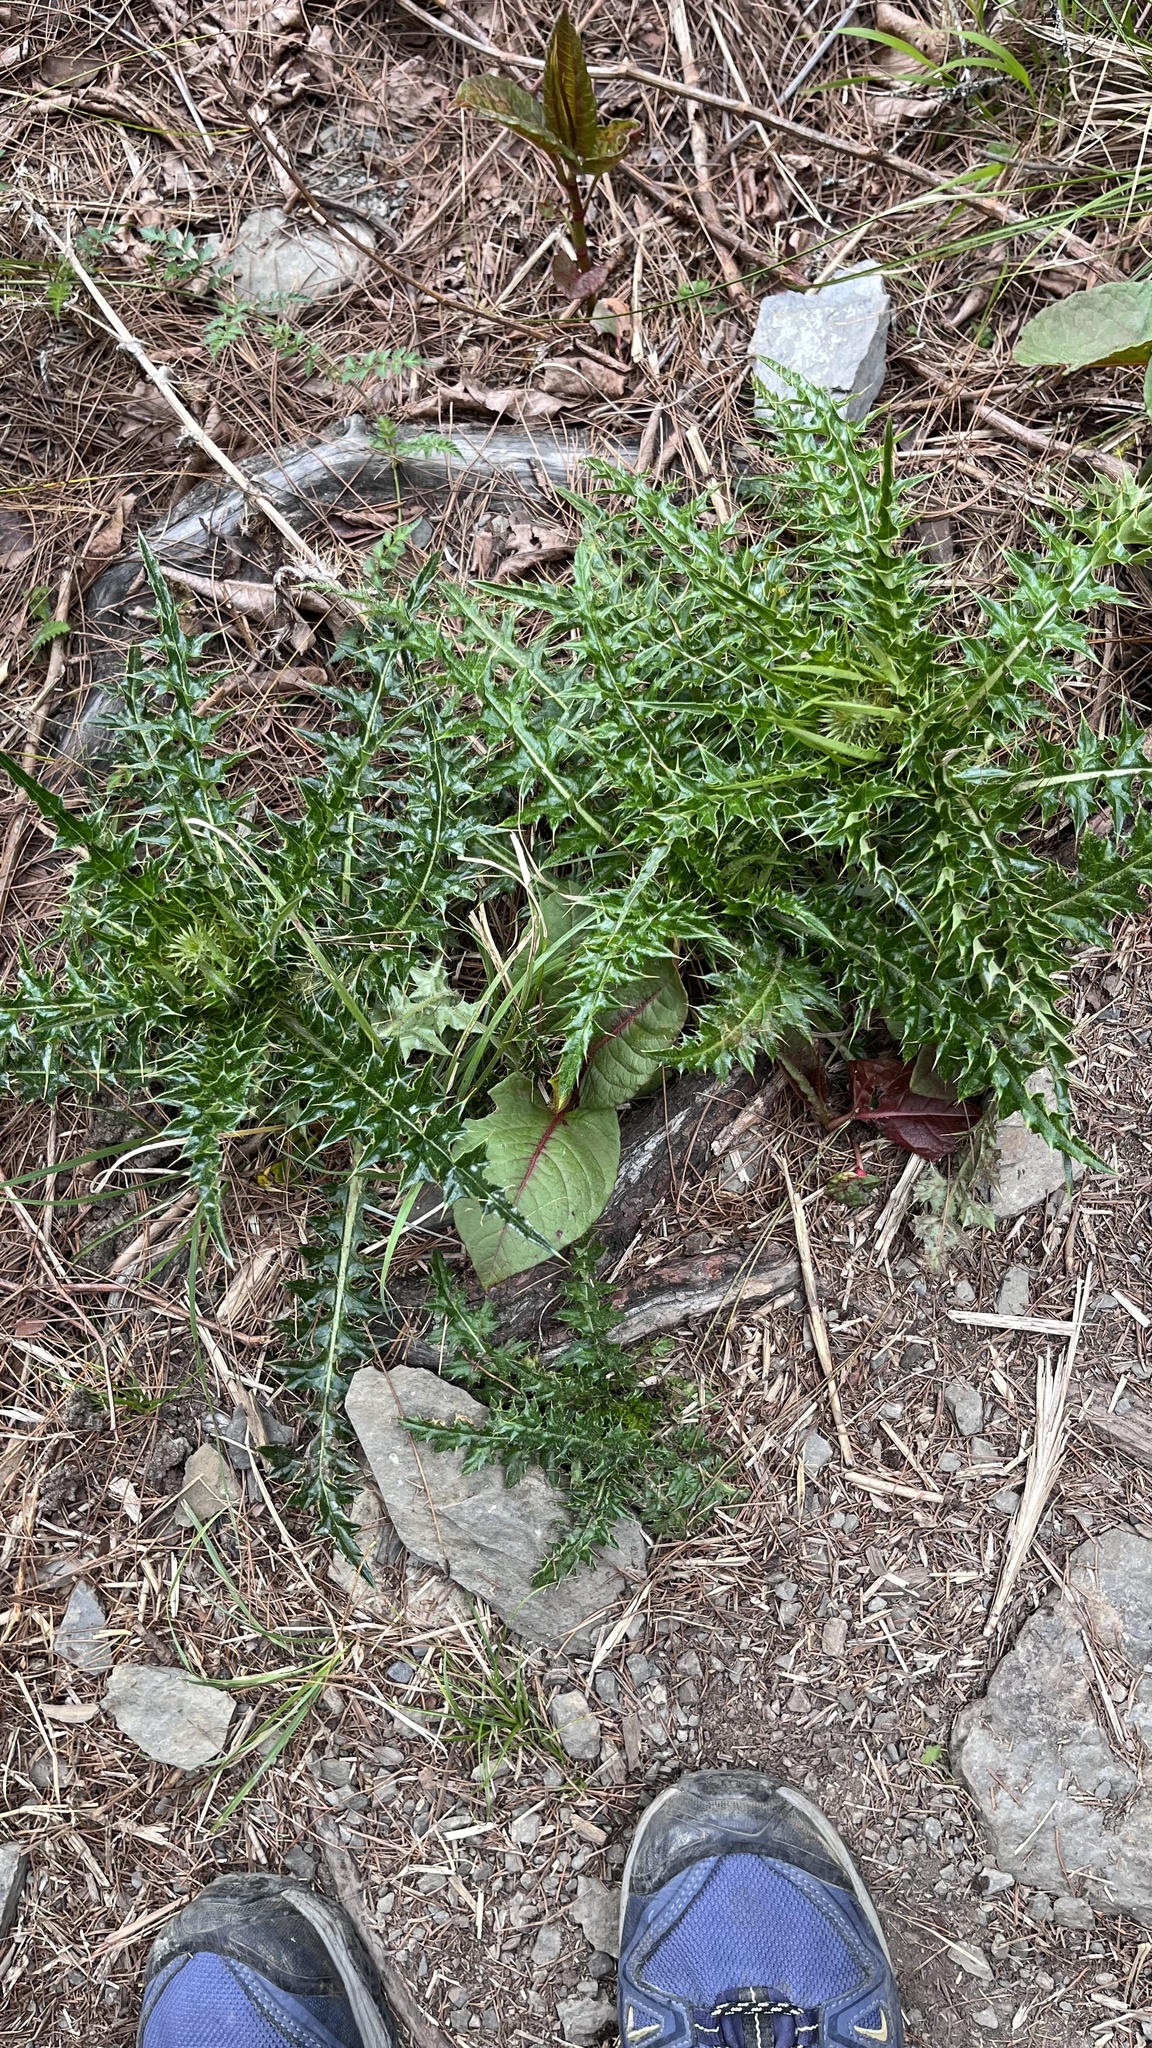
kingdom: Plantae
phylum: Tracheophyta
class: Magnoliopsida
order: Asterales
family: Asteraceae
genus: Cirsium
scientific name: Cirsium arisanense
